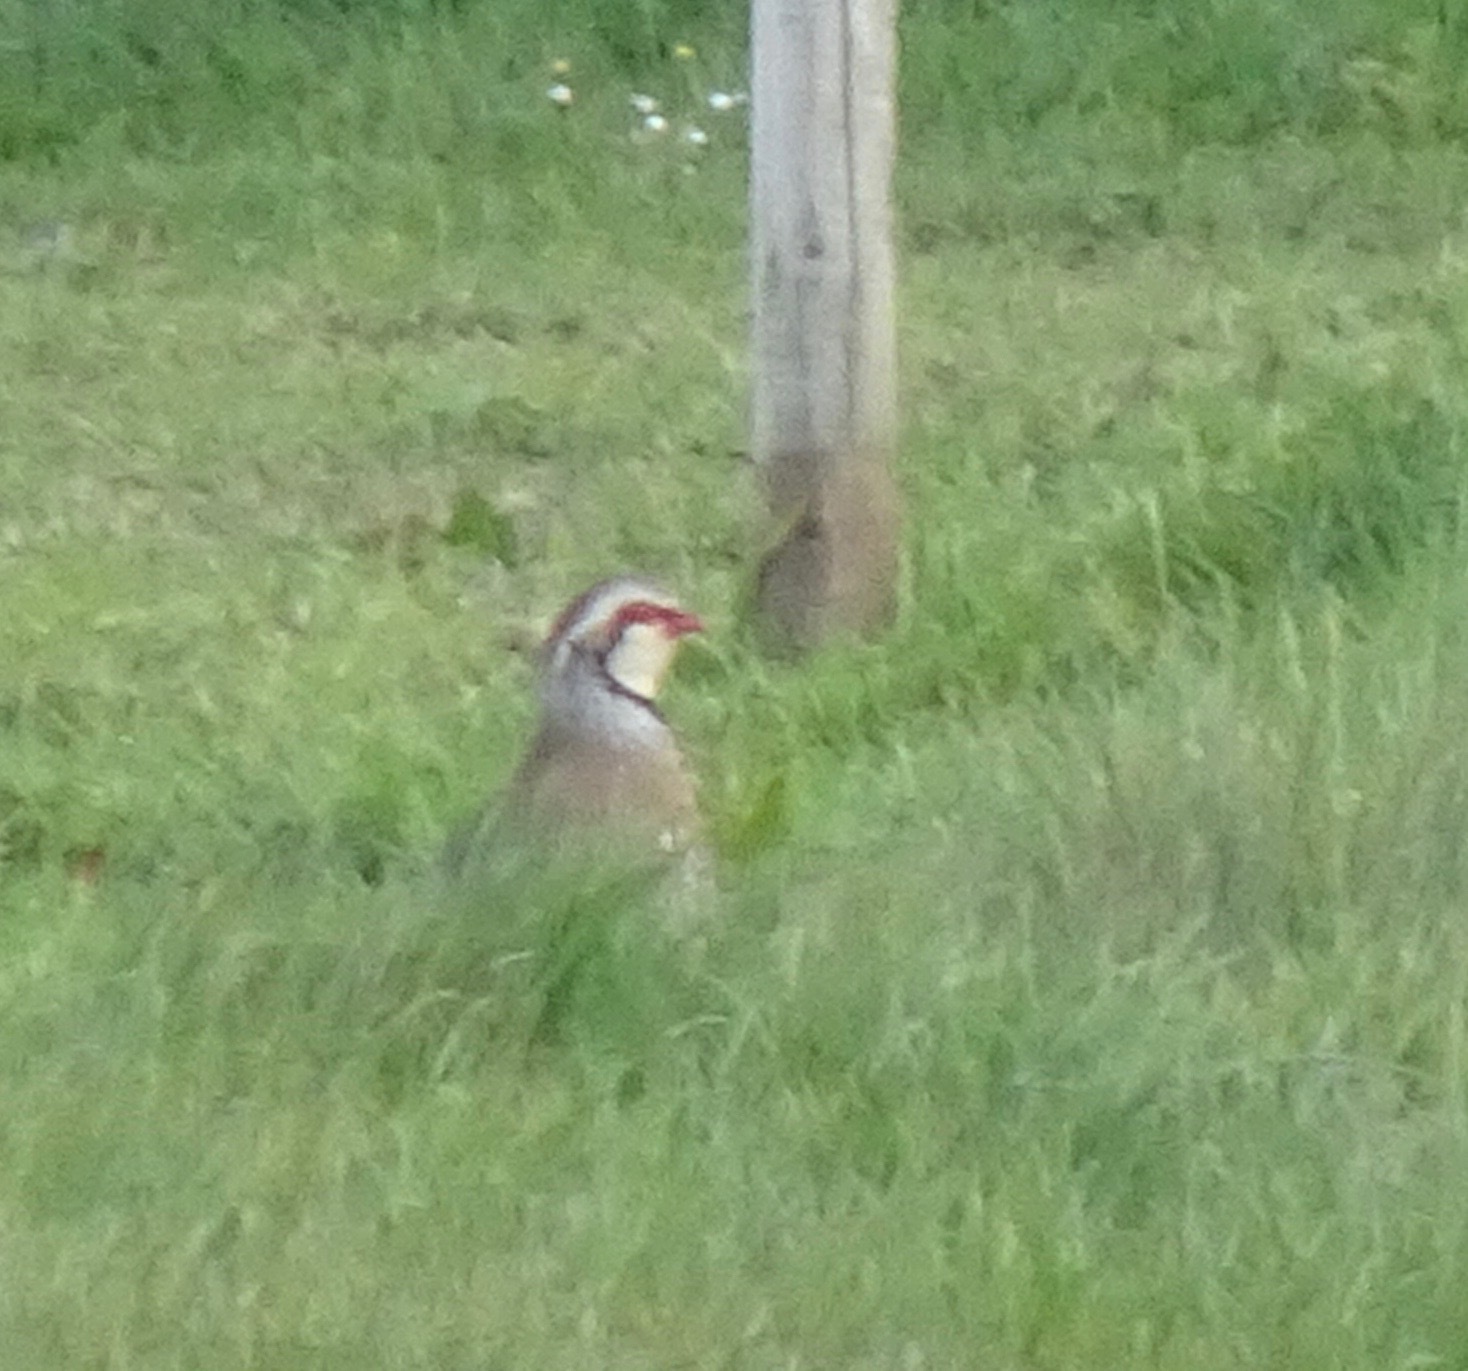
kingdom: Animalia
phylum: Chordata
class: Aves
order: Galliformes
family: Phasianidae
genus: Alectoris
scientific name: Alectoris rufa
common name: Red-legged partridge
